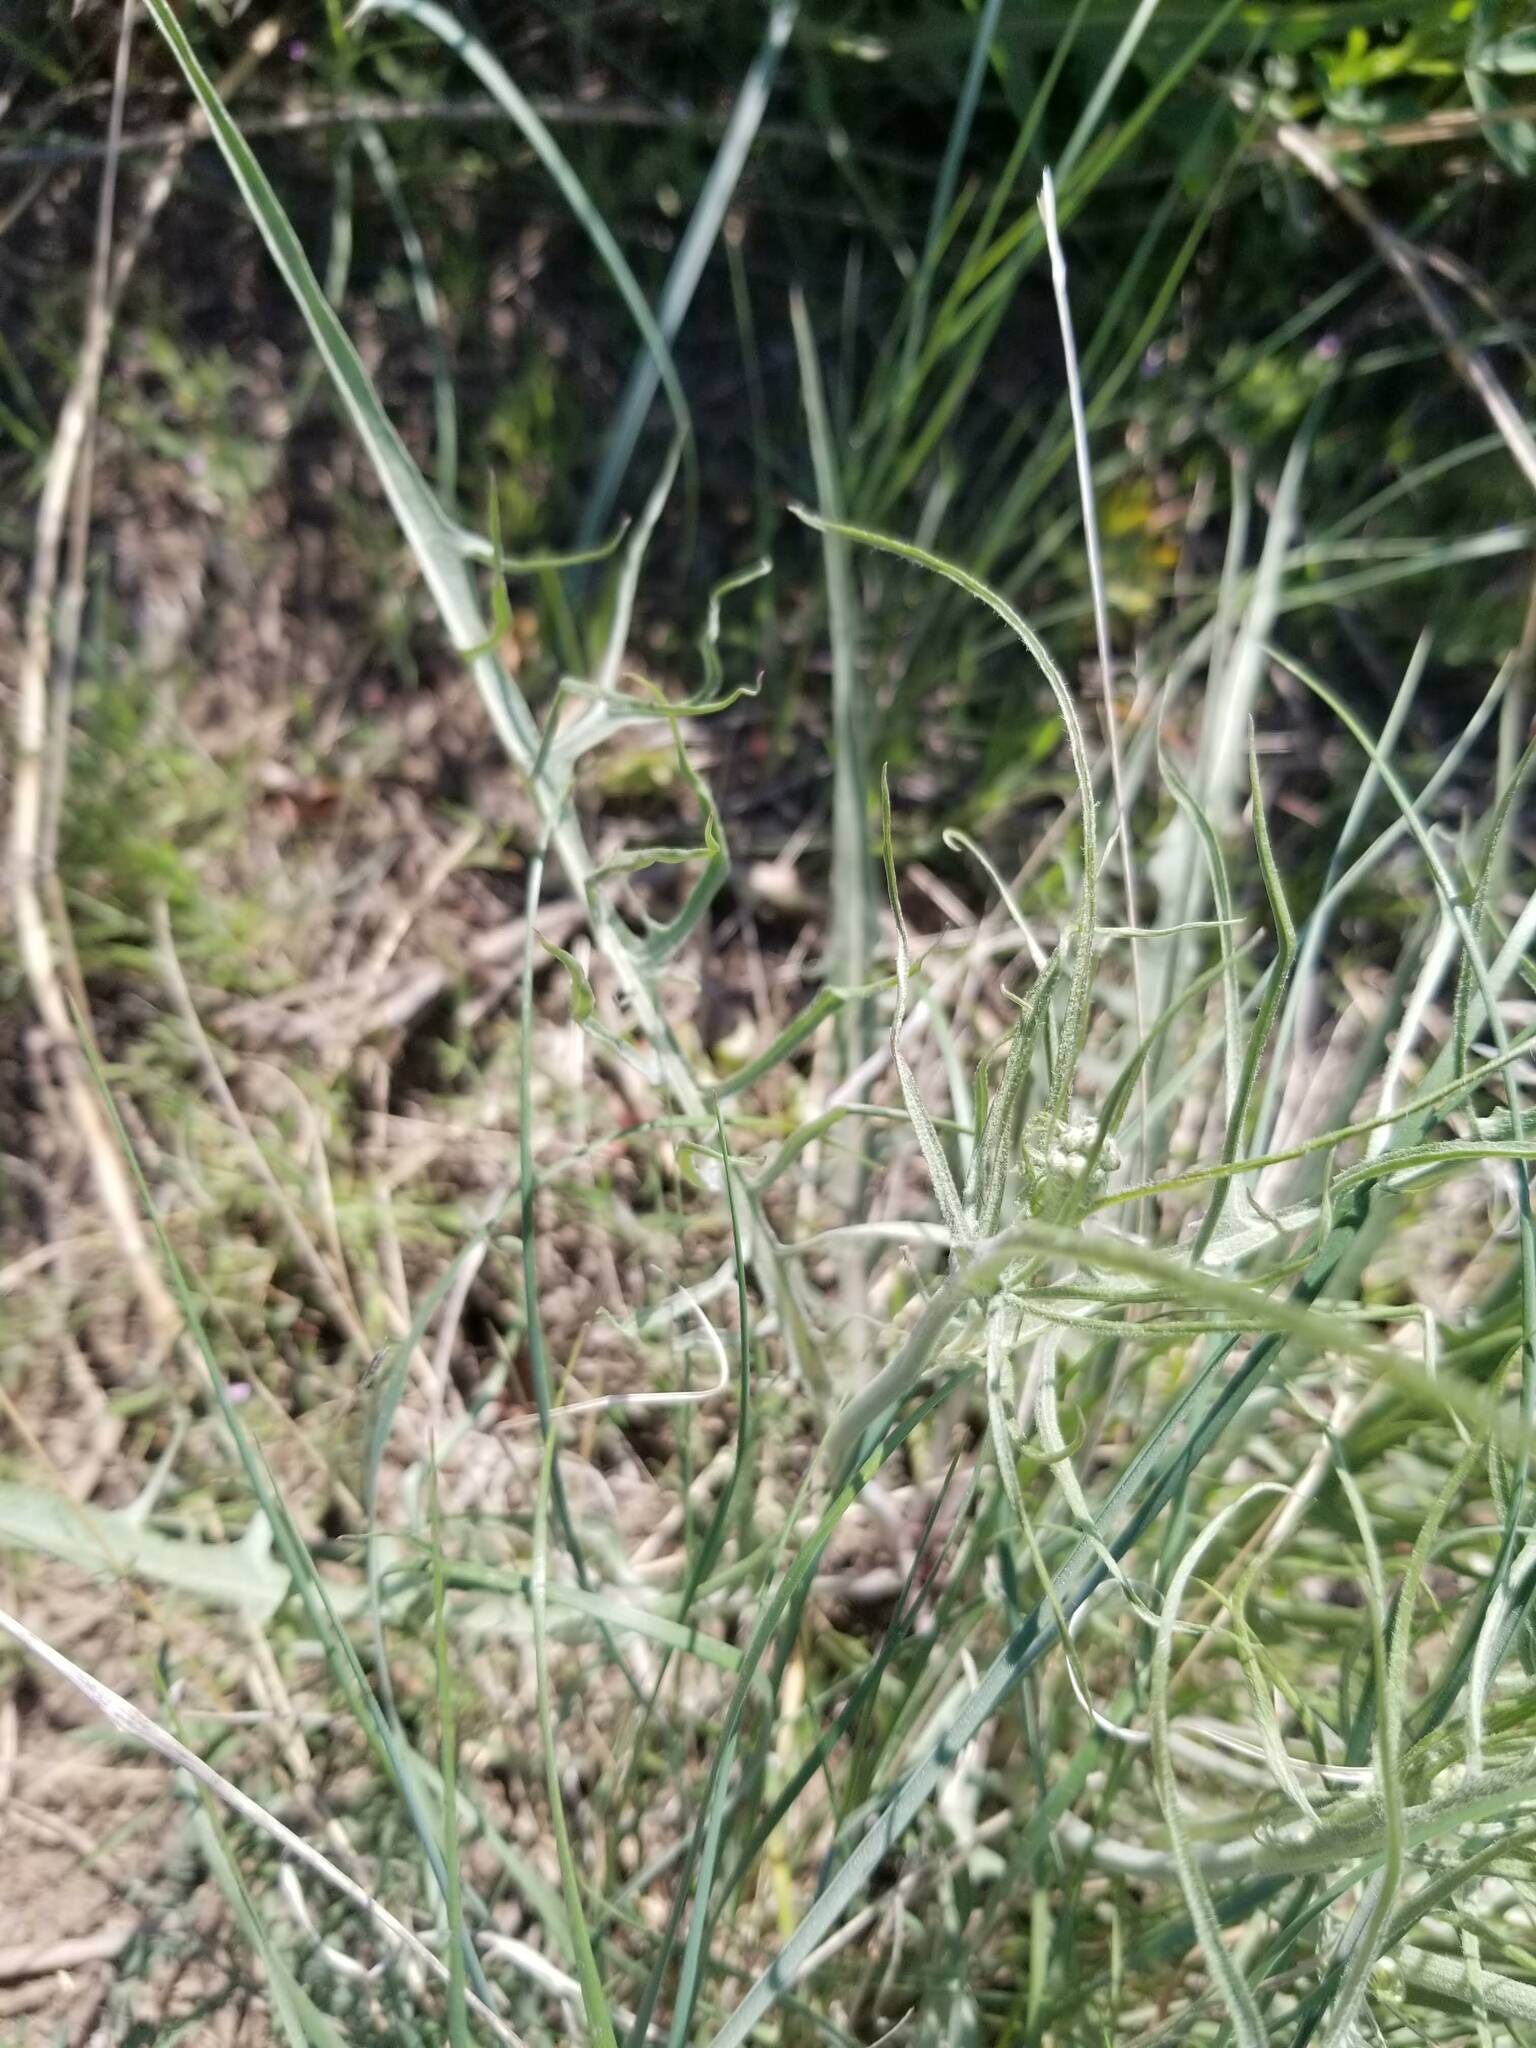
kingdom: Plantae
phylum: Tracheophyta
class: Magnoliopsida
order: Asterales
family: Asteraceae
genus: Crepis
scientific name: Crepis atribarba
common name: Dark hawk's-beard
